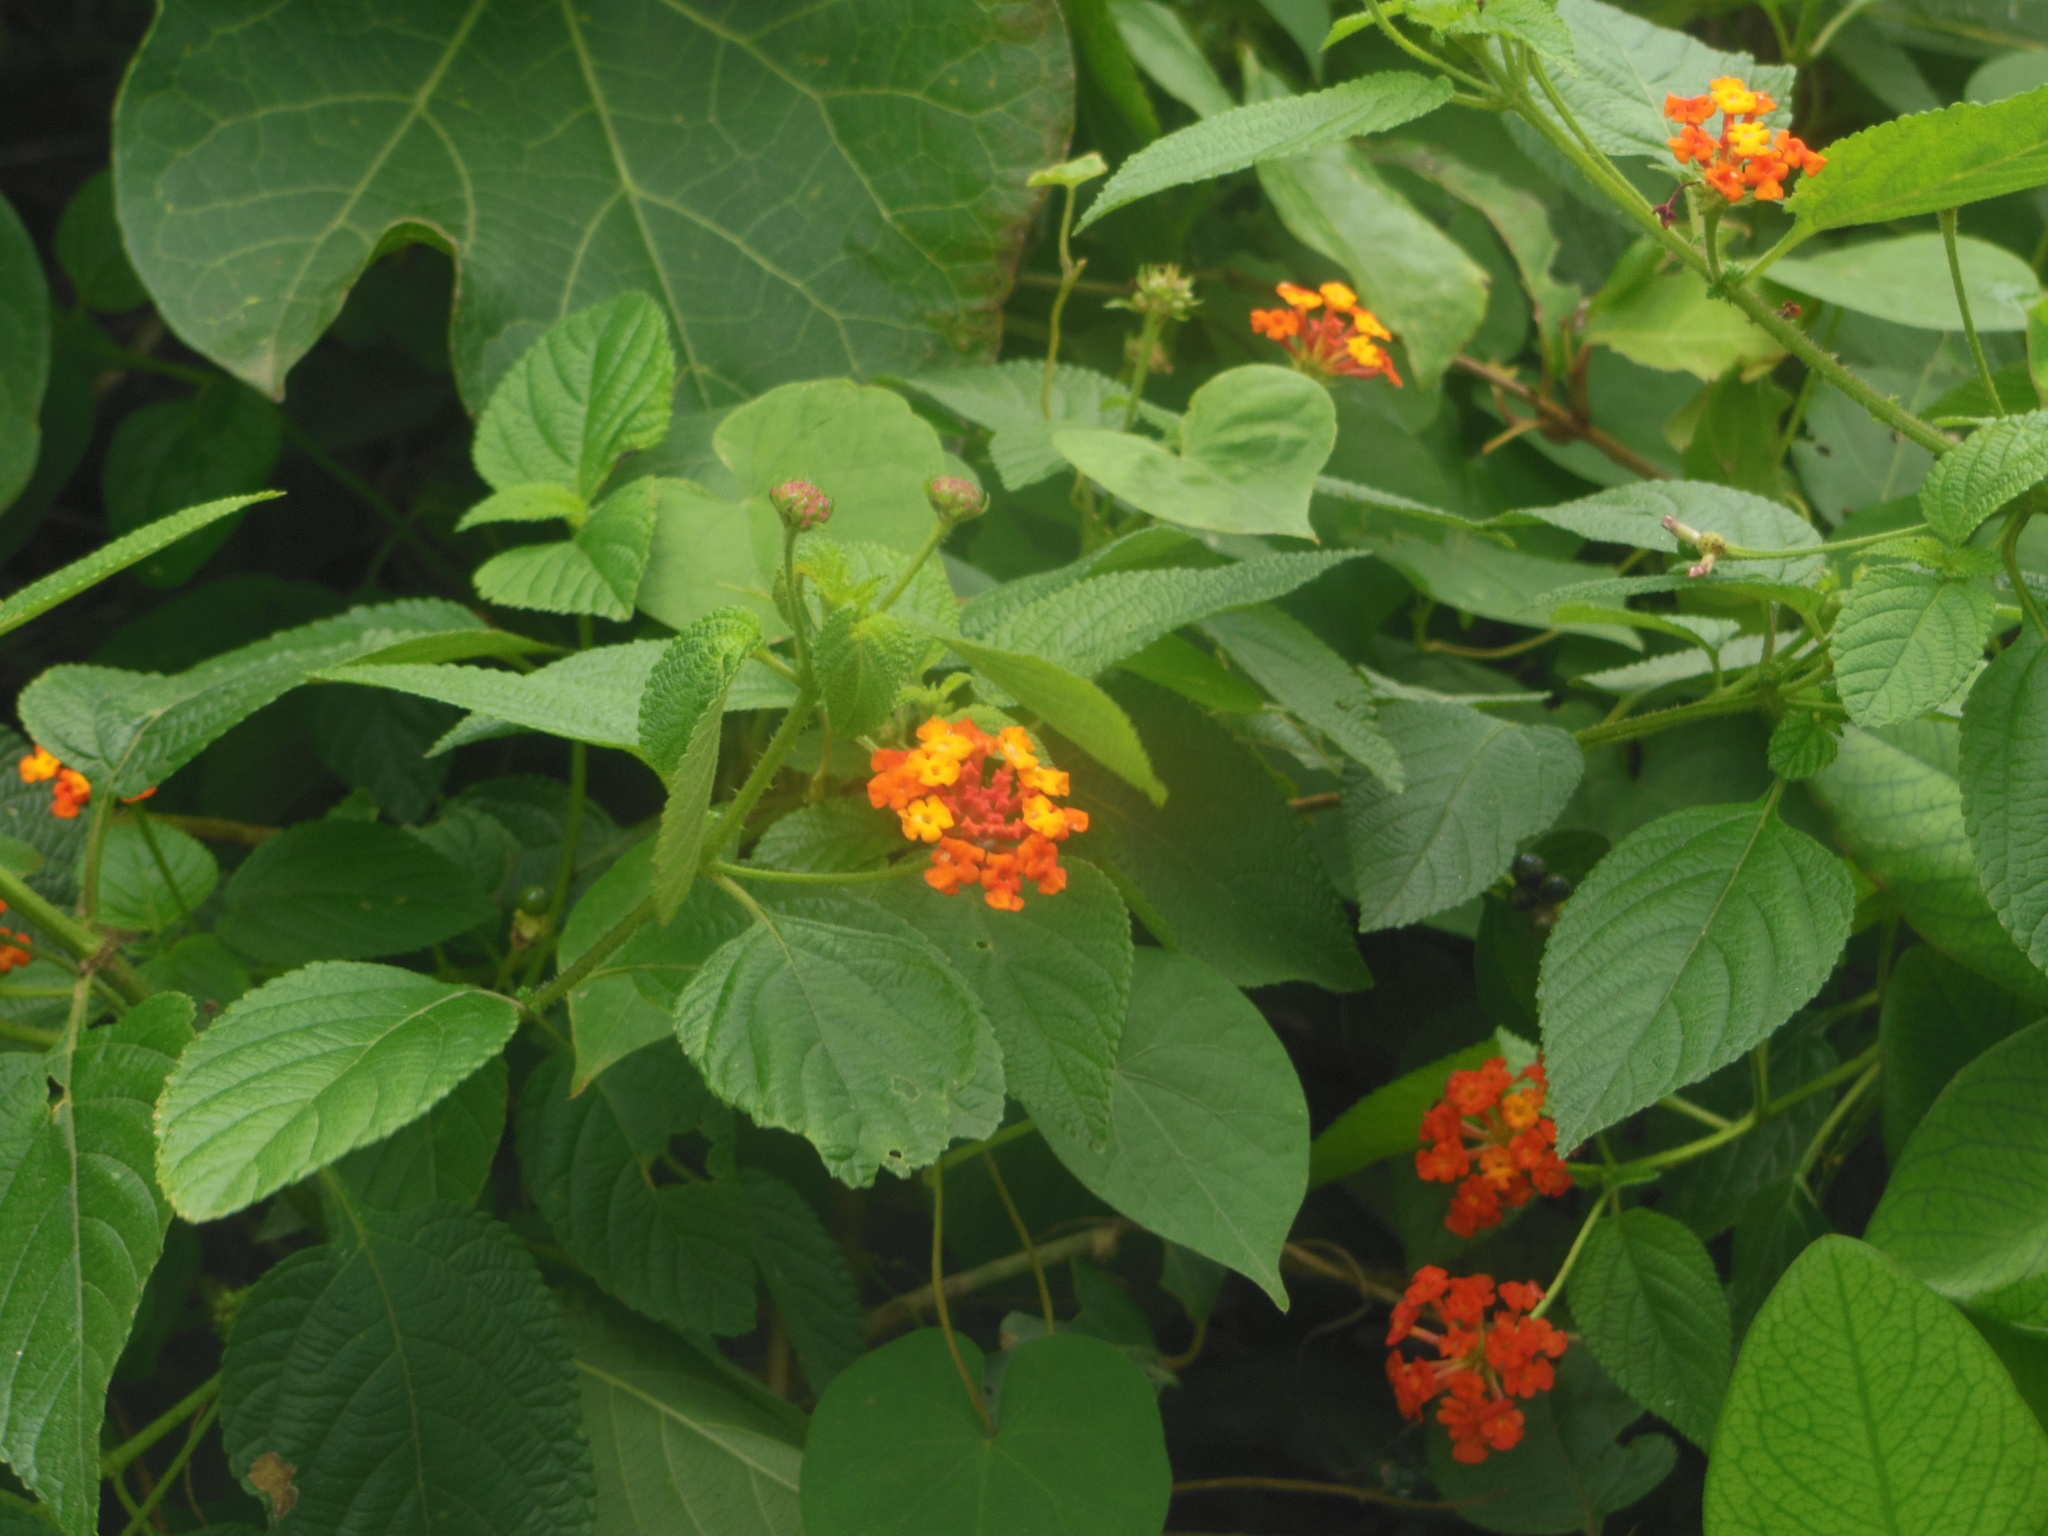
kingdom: Plantae
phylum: Tracheophyta
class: Magnoliopsida
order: Lamiales
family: Verbenaceae
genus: Lantana
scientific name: Lantana camara
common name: Lantana
